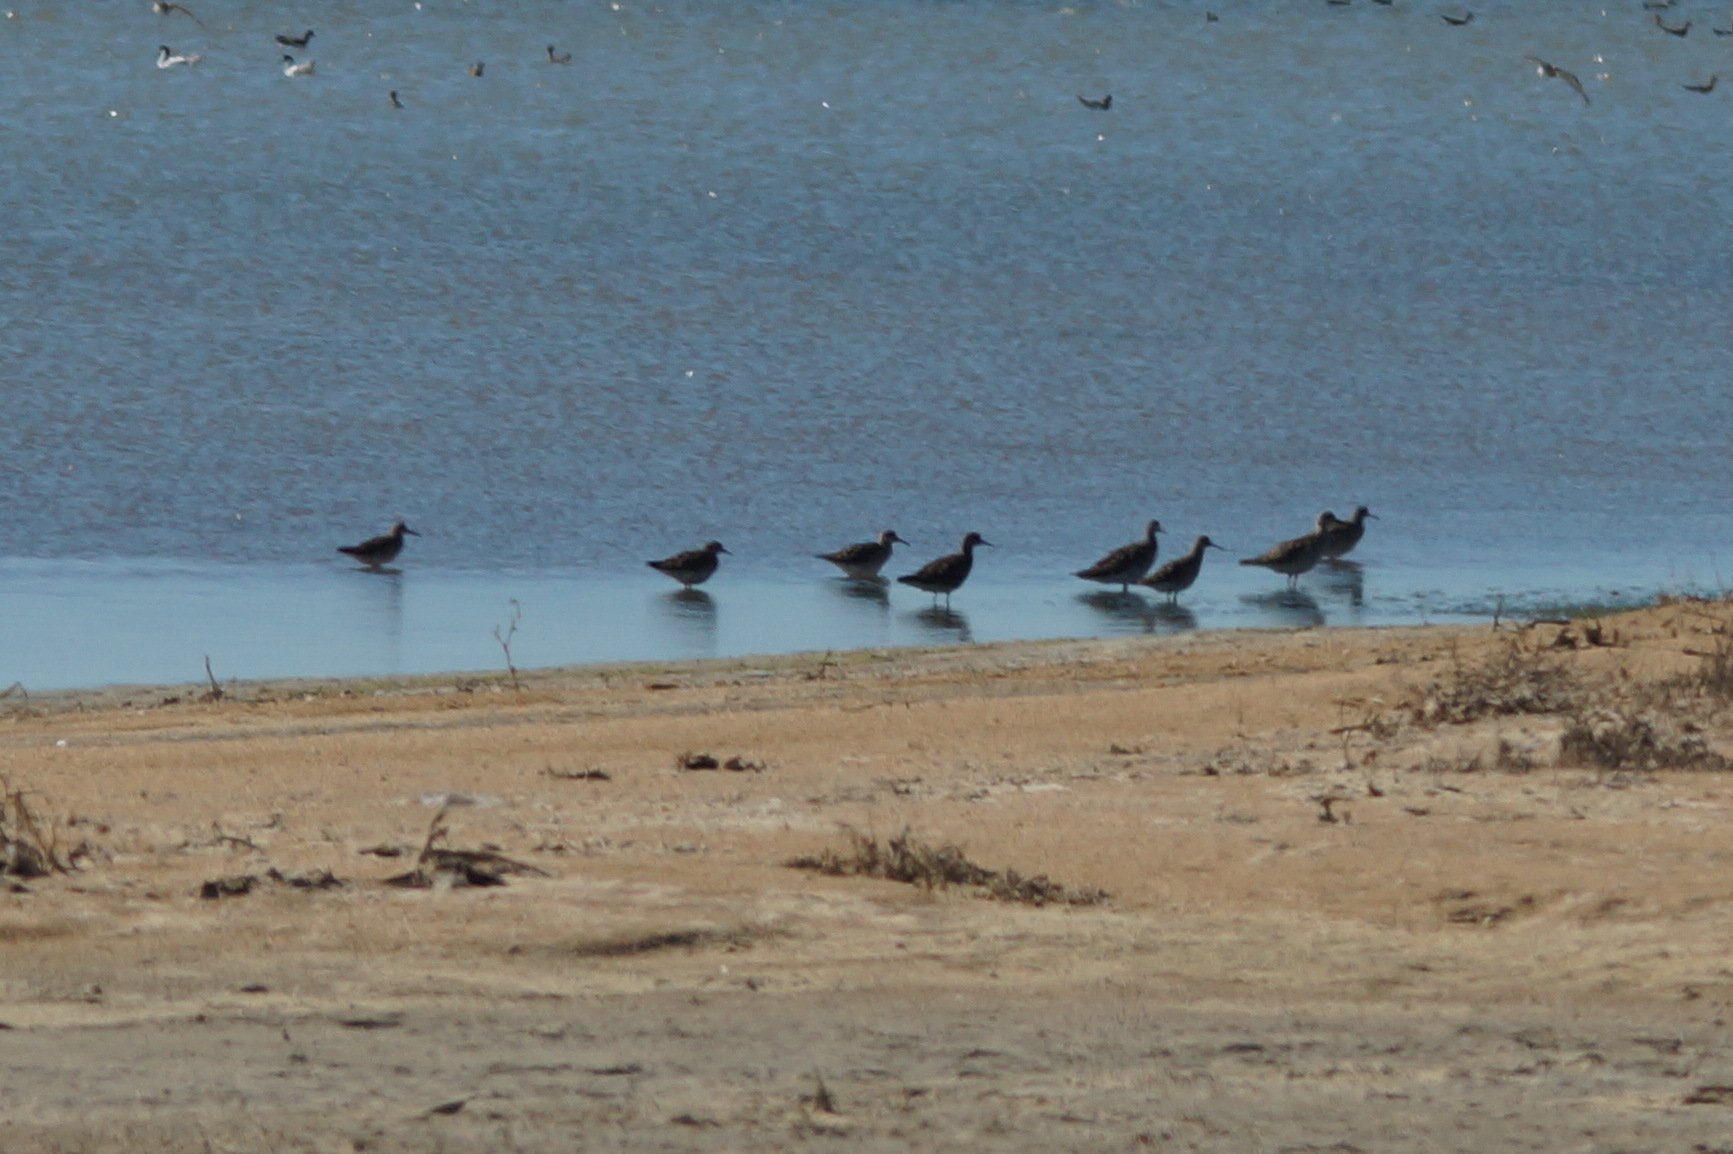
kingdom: Animalia
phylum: Chordata
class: Aves
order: Charadriiformes
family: Scolopacidae
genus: Calidris
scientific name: Calidris pugnax
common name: Ruff
